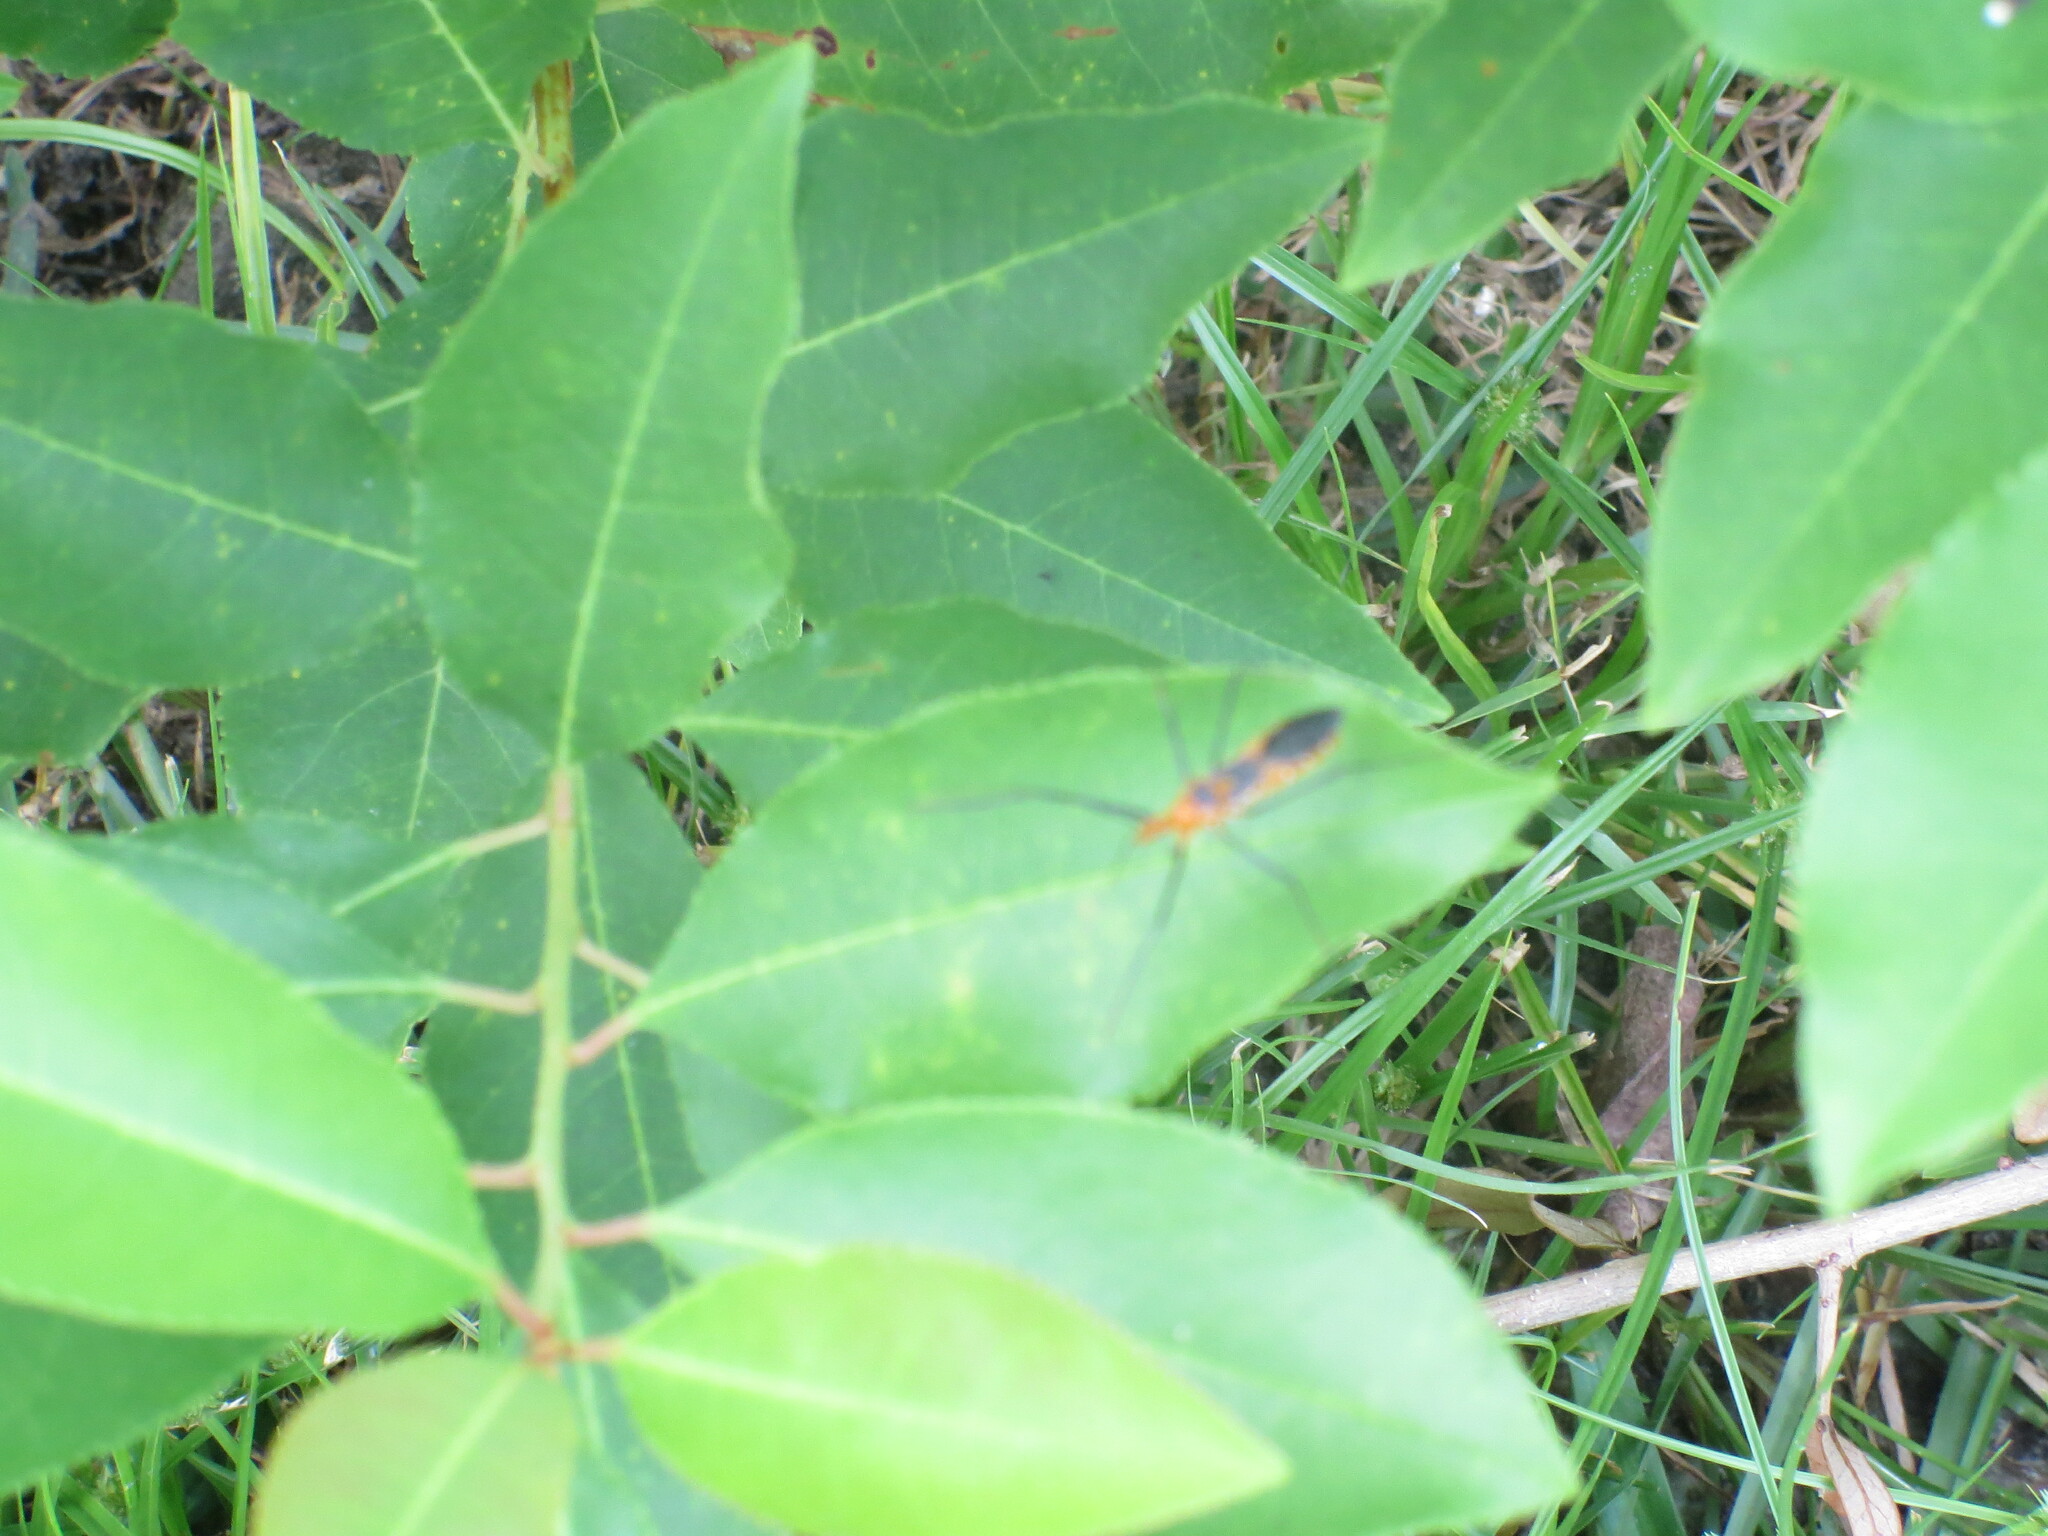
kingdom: Animalia
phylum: Arthropoda
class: Insecta
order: Hemiptera
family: Reduviidae
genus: Zelus
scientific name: Zelus longipes
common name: Milkweed assassin bug
